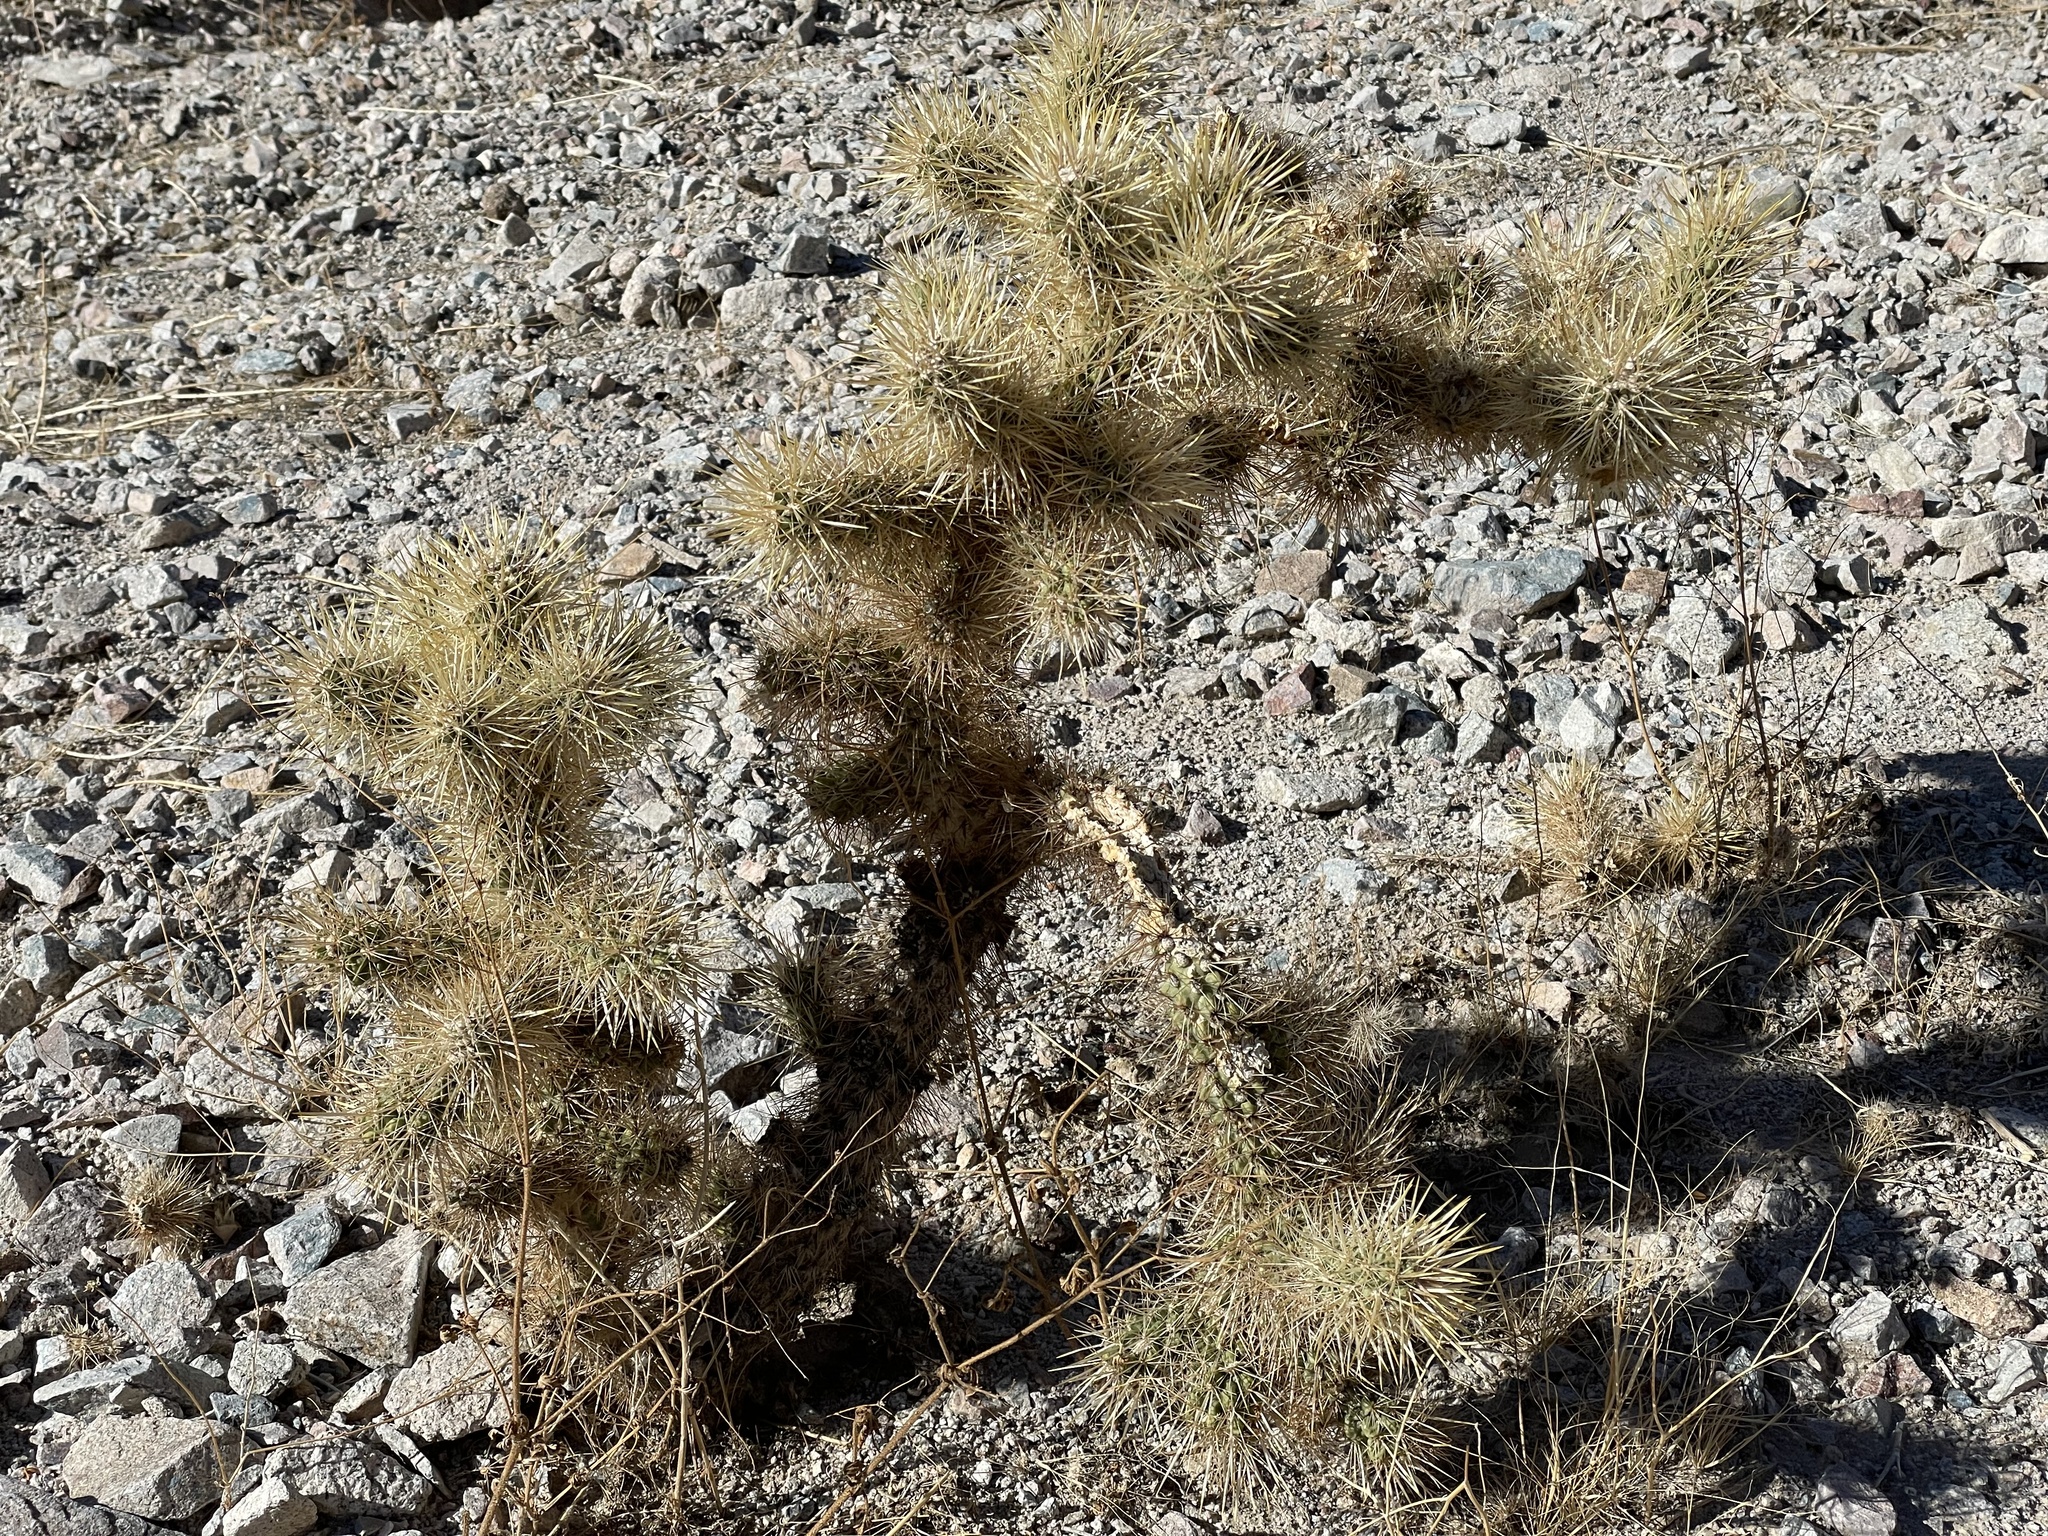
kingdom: Plantae
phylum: Tracheophyta
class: Magnoliopsida
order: Caryophyllales
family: Cactaceae
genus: Cylindropuntia
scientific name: Cylindropuntia echinocarpa
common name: Ground cholla
